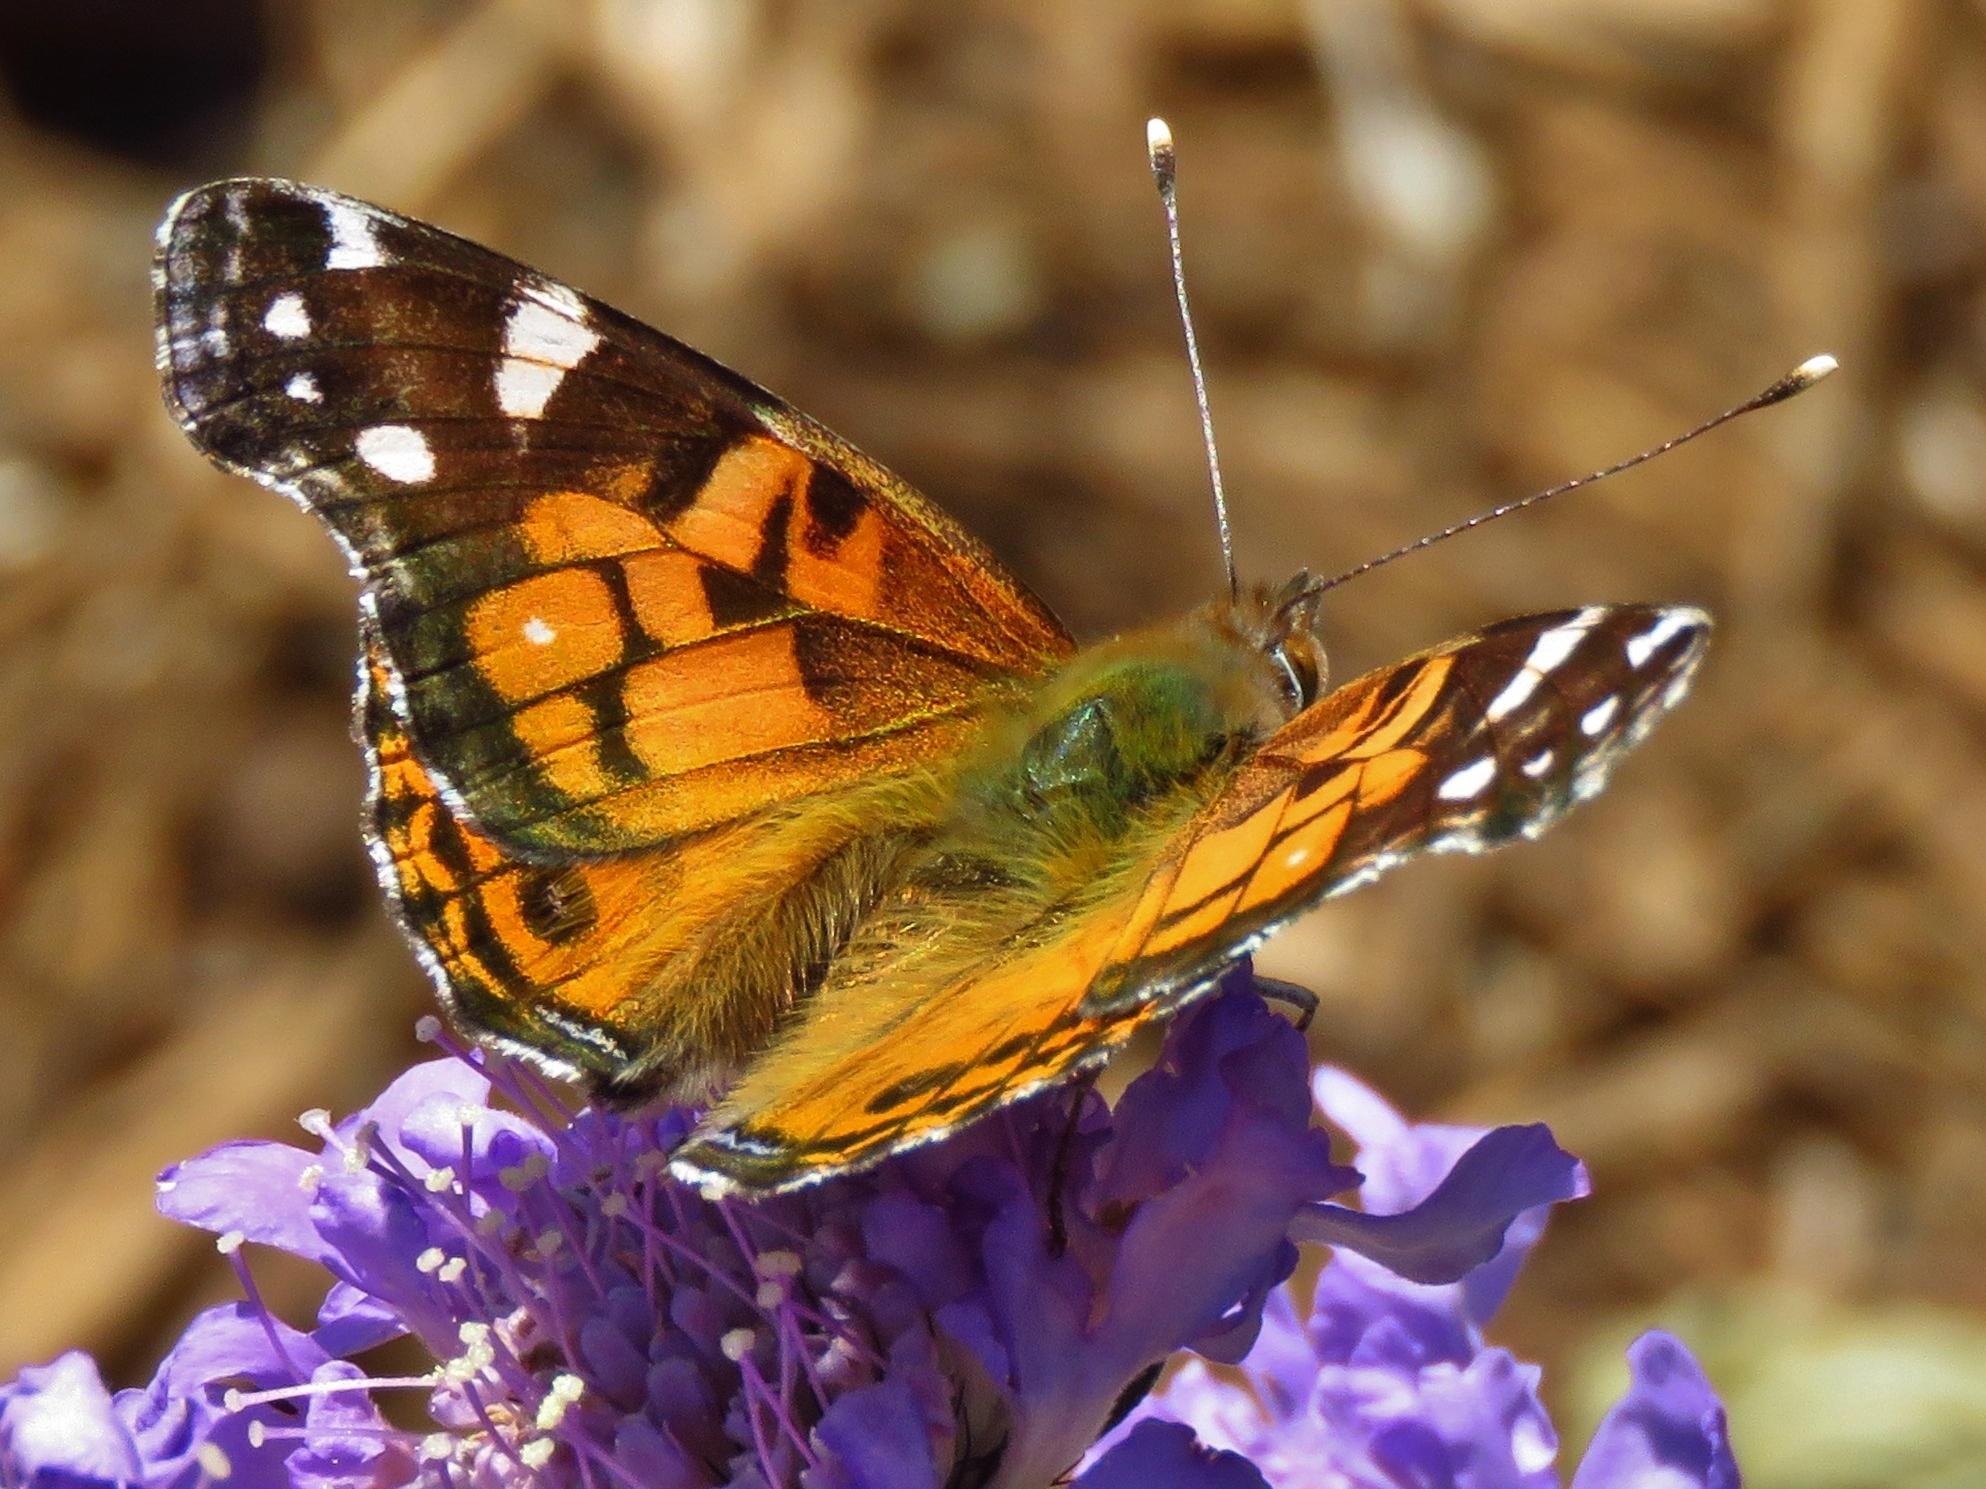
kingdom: Animalia
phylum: Arthropoda
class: Insecta
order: Lepidoptera
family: Nymphalidae
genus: Vanessa
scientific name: Vanessa virginiensis
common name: American lady
